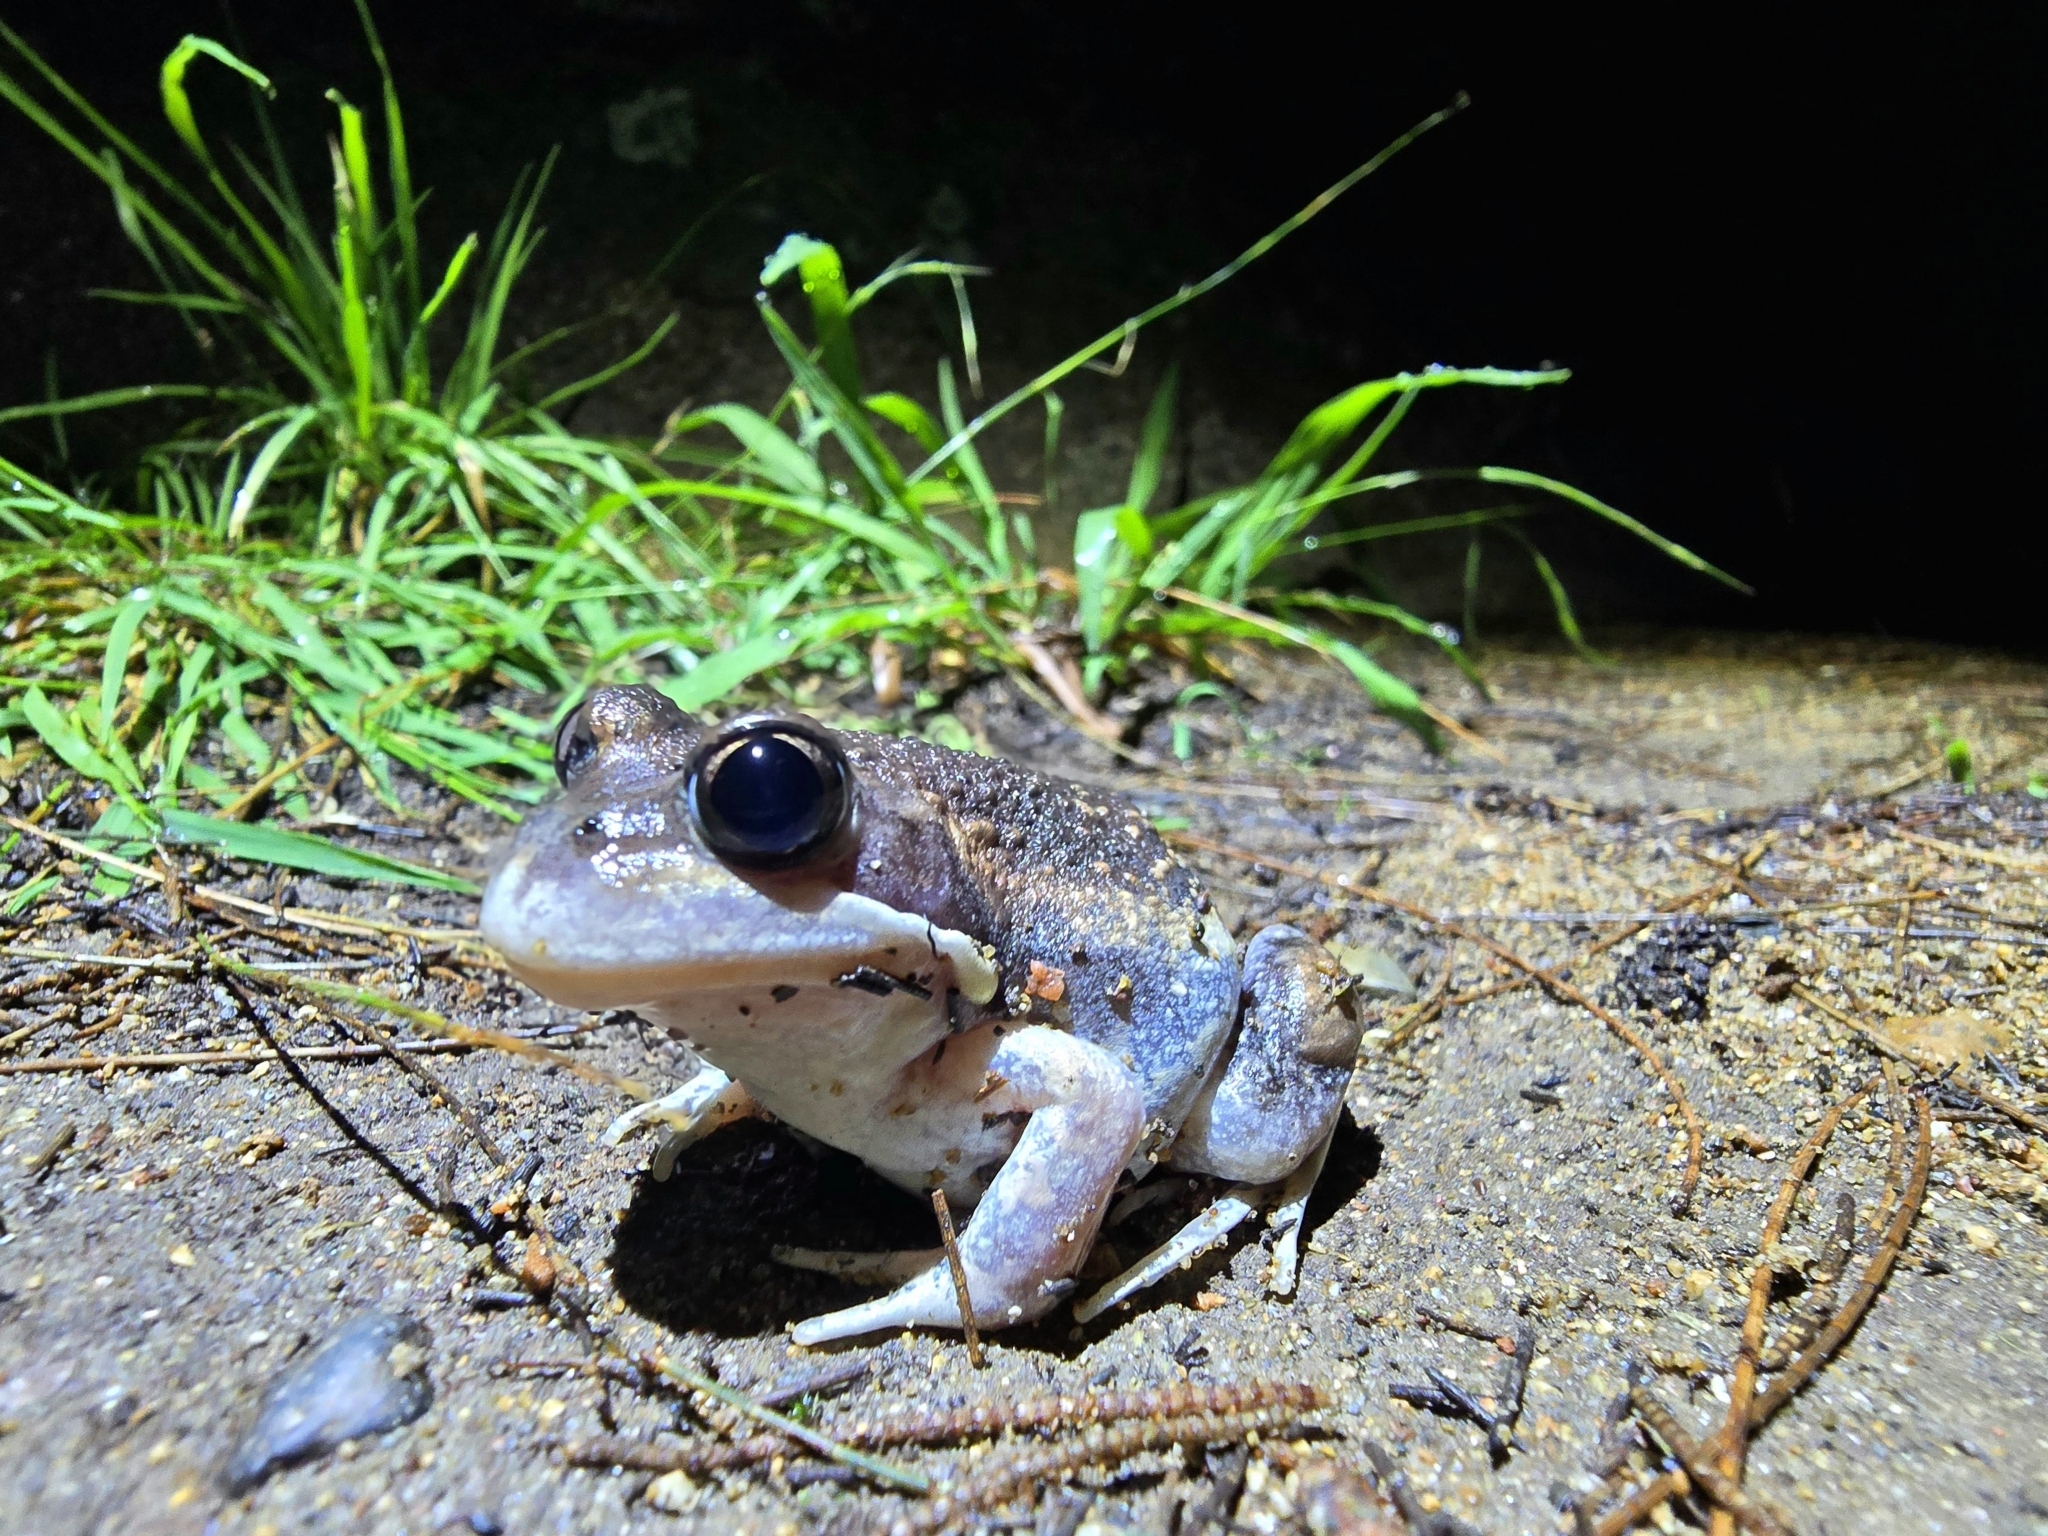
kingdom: Animalia
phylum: Chordata
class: Amphibia
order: Anura
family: Limnodynastidae
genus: Limnodynastes
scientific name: Limnodynastes dumerilii
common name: Banjo frog
